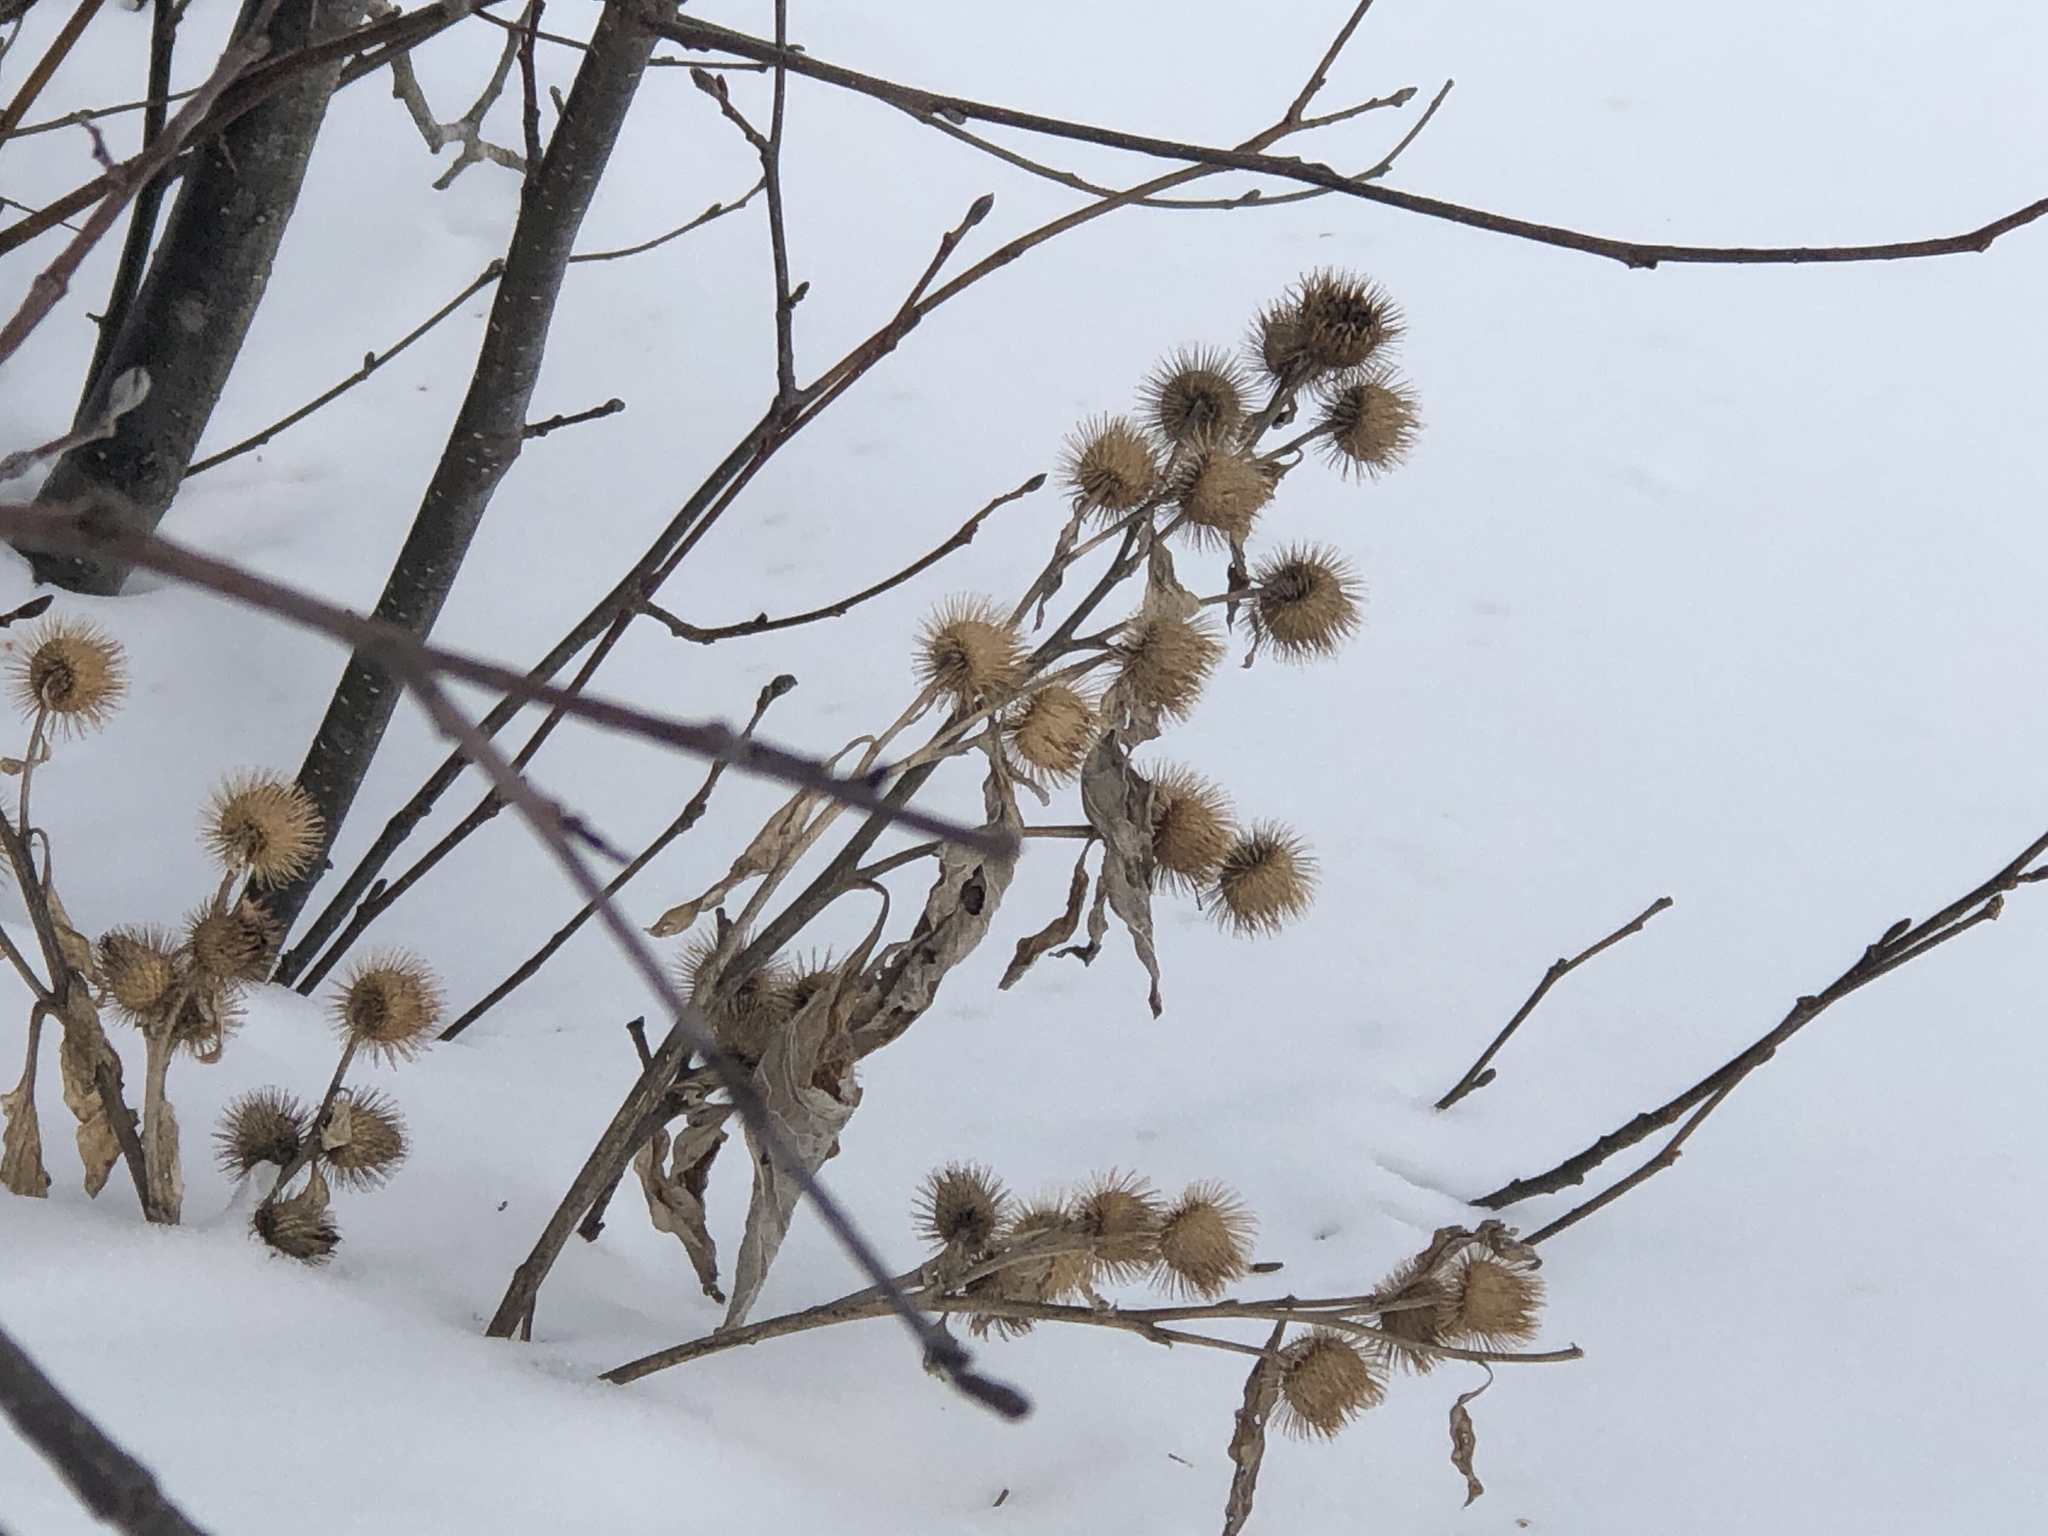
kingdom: Plantae
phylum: Tracheophyta
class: Magnoliopsida
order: Asterales
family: Asteraceae
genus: Arctium
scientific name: Arctium minus
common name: Lesser burdock
